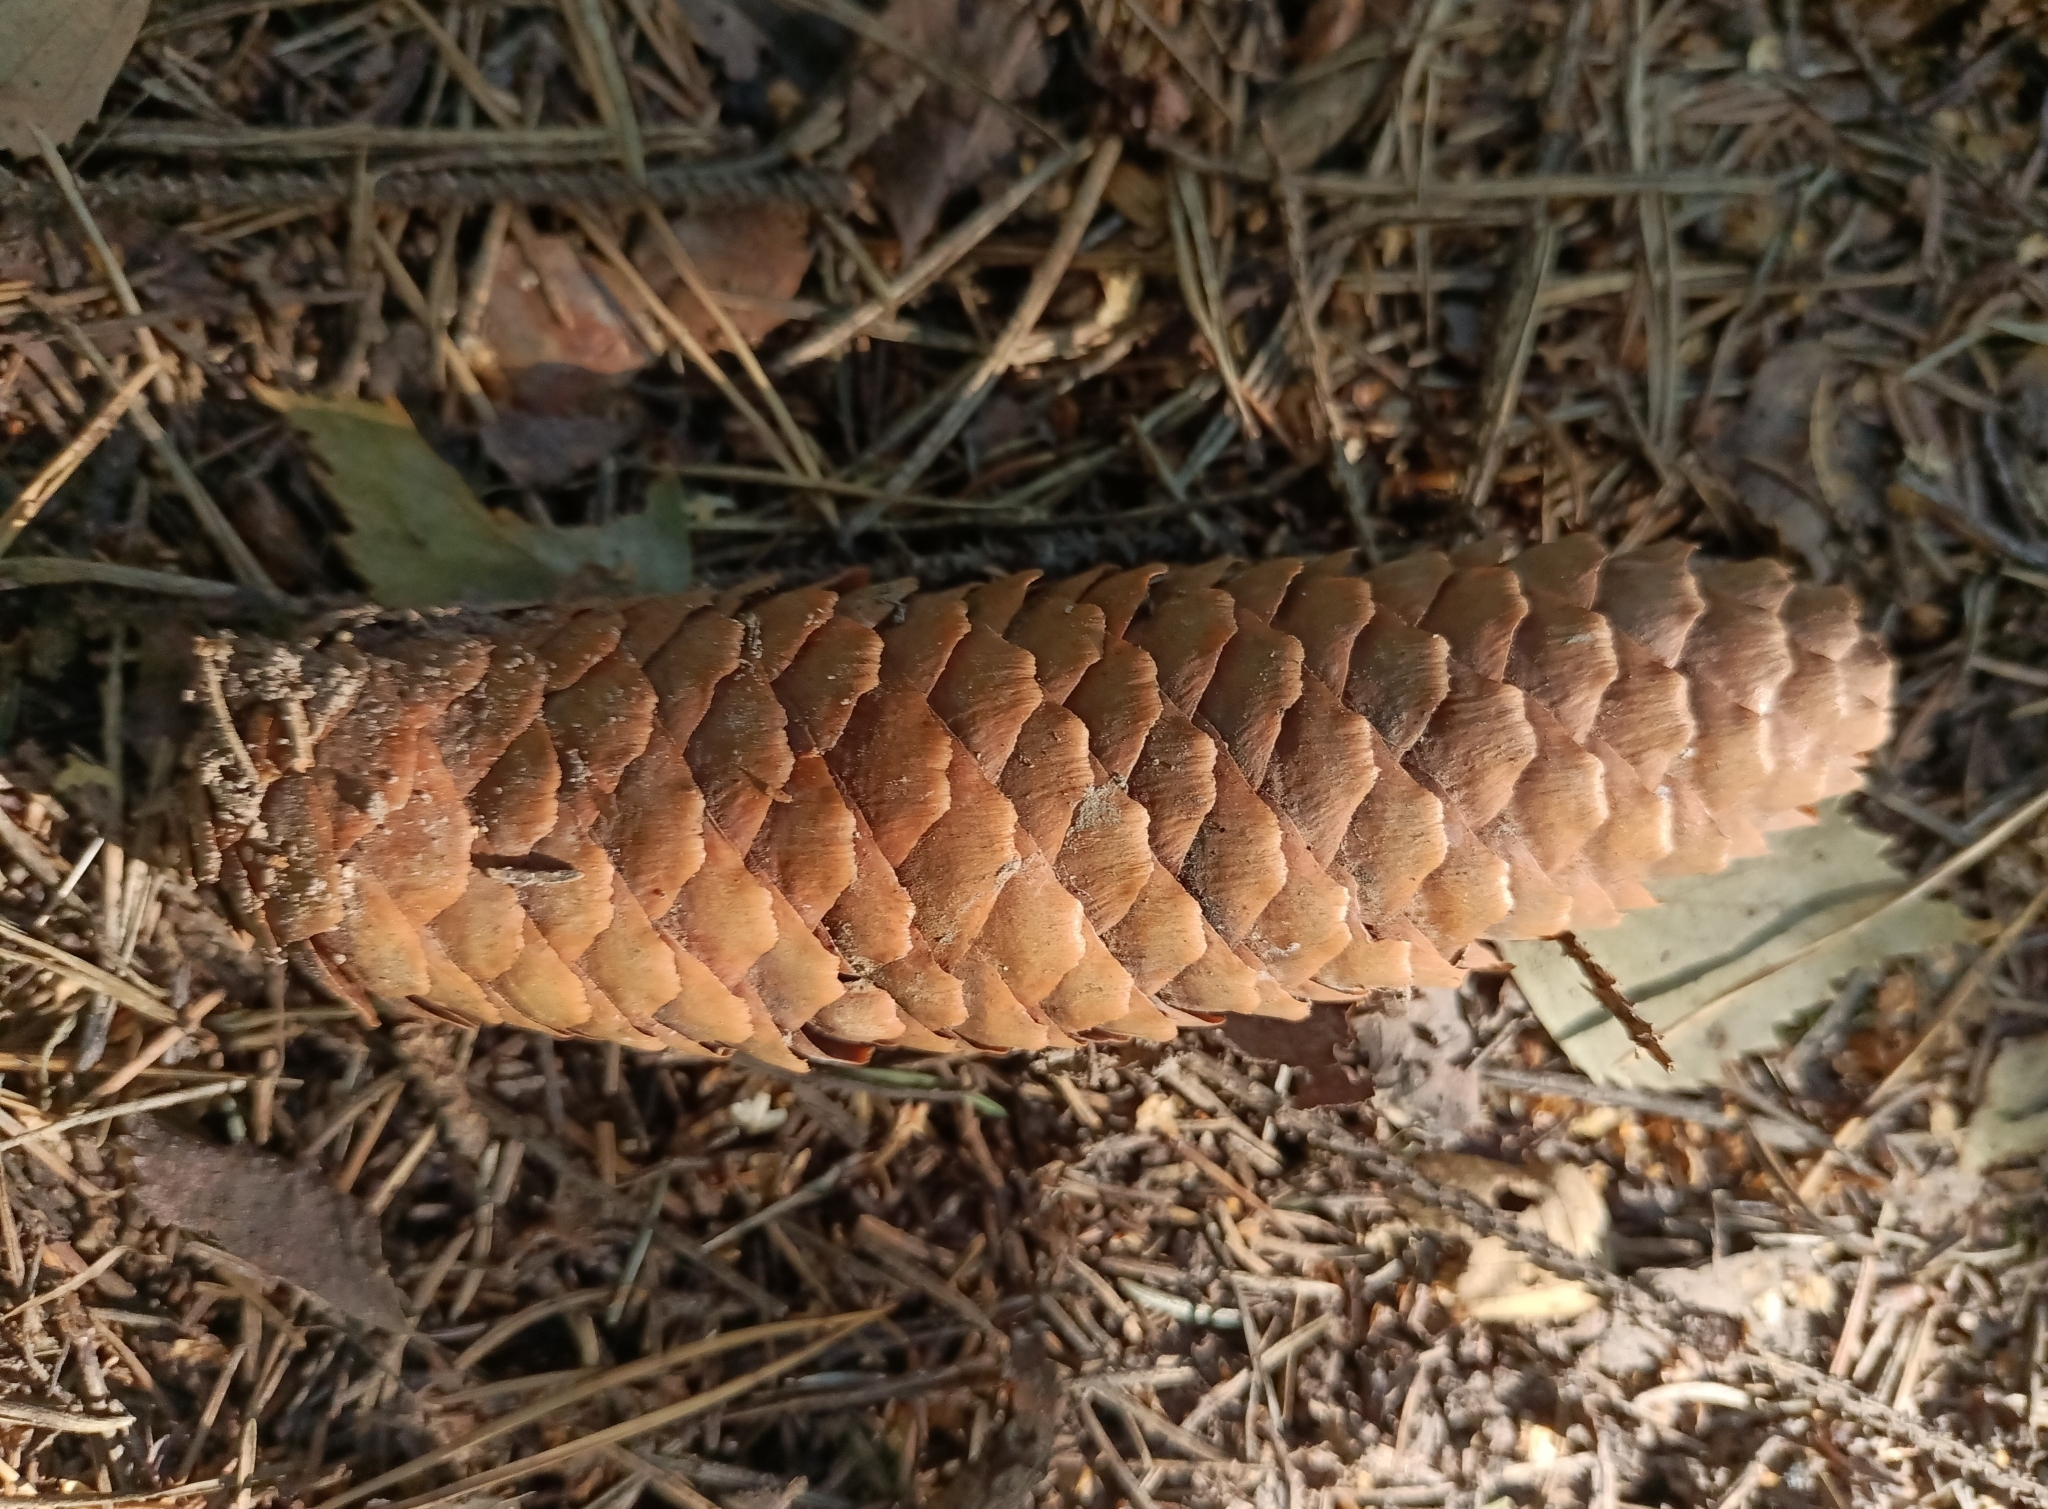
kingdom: Plantae
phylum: Tracheophyta
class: Pinopsida
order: Pinales
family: Pinaceae
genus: Picea
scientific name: Picea abies
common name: Norway spruce
